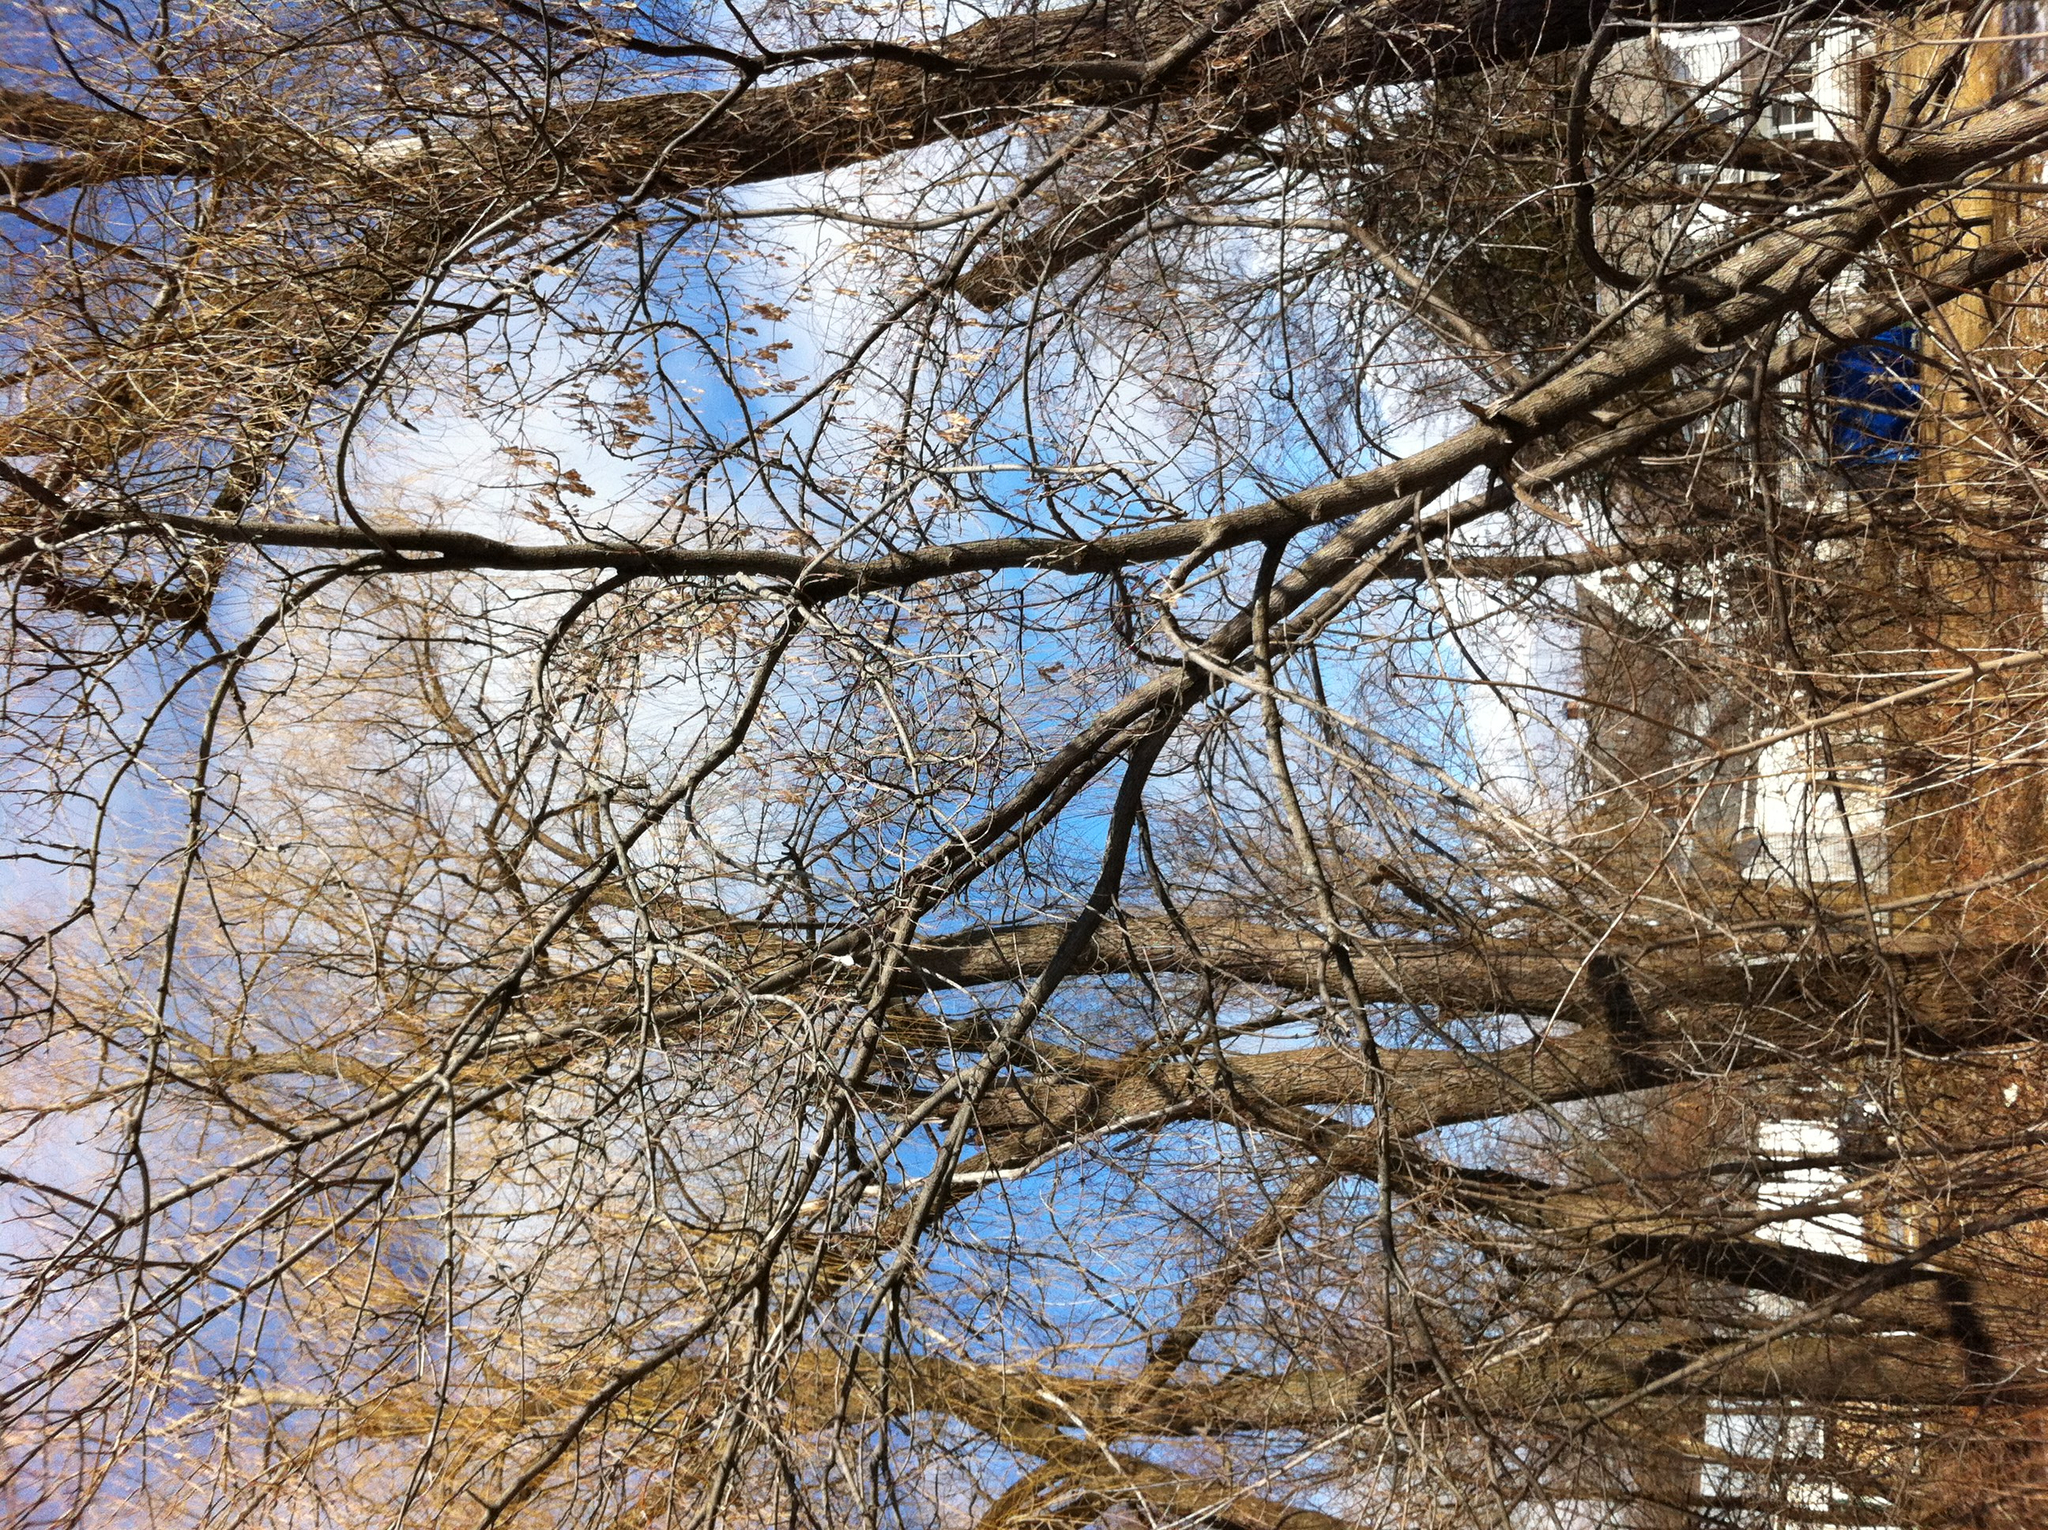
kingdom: Plantae
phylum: Tracheophyta
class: Magnoliopsida
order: Sapindales
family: Sapindaceae
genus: Acer
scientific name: Acer negundo
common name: Ashleaf maple
